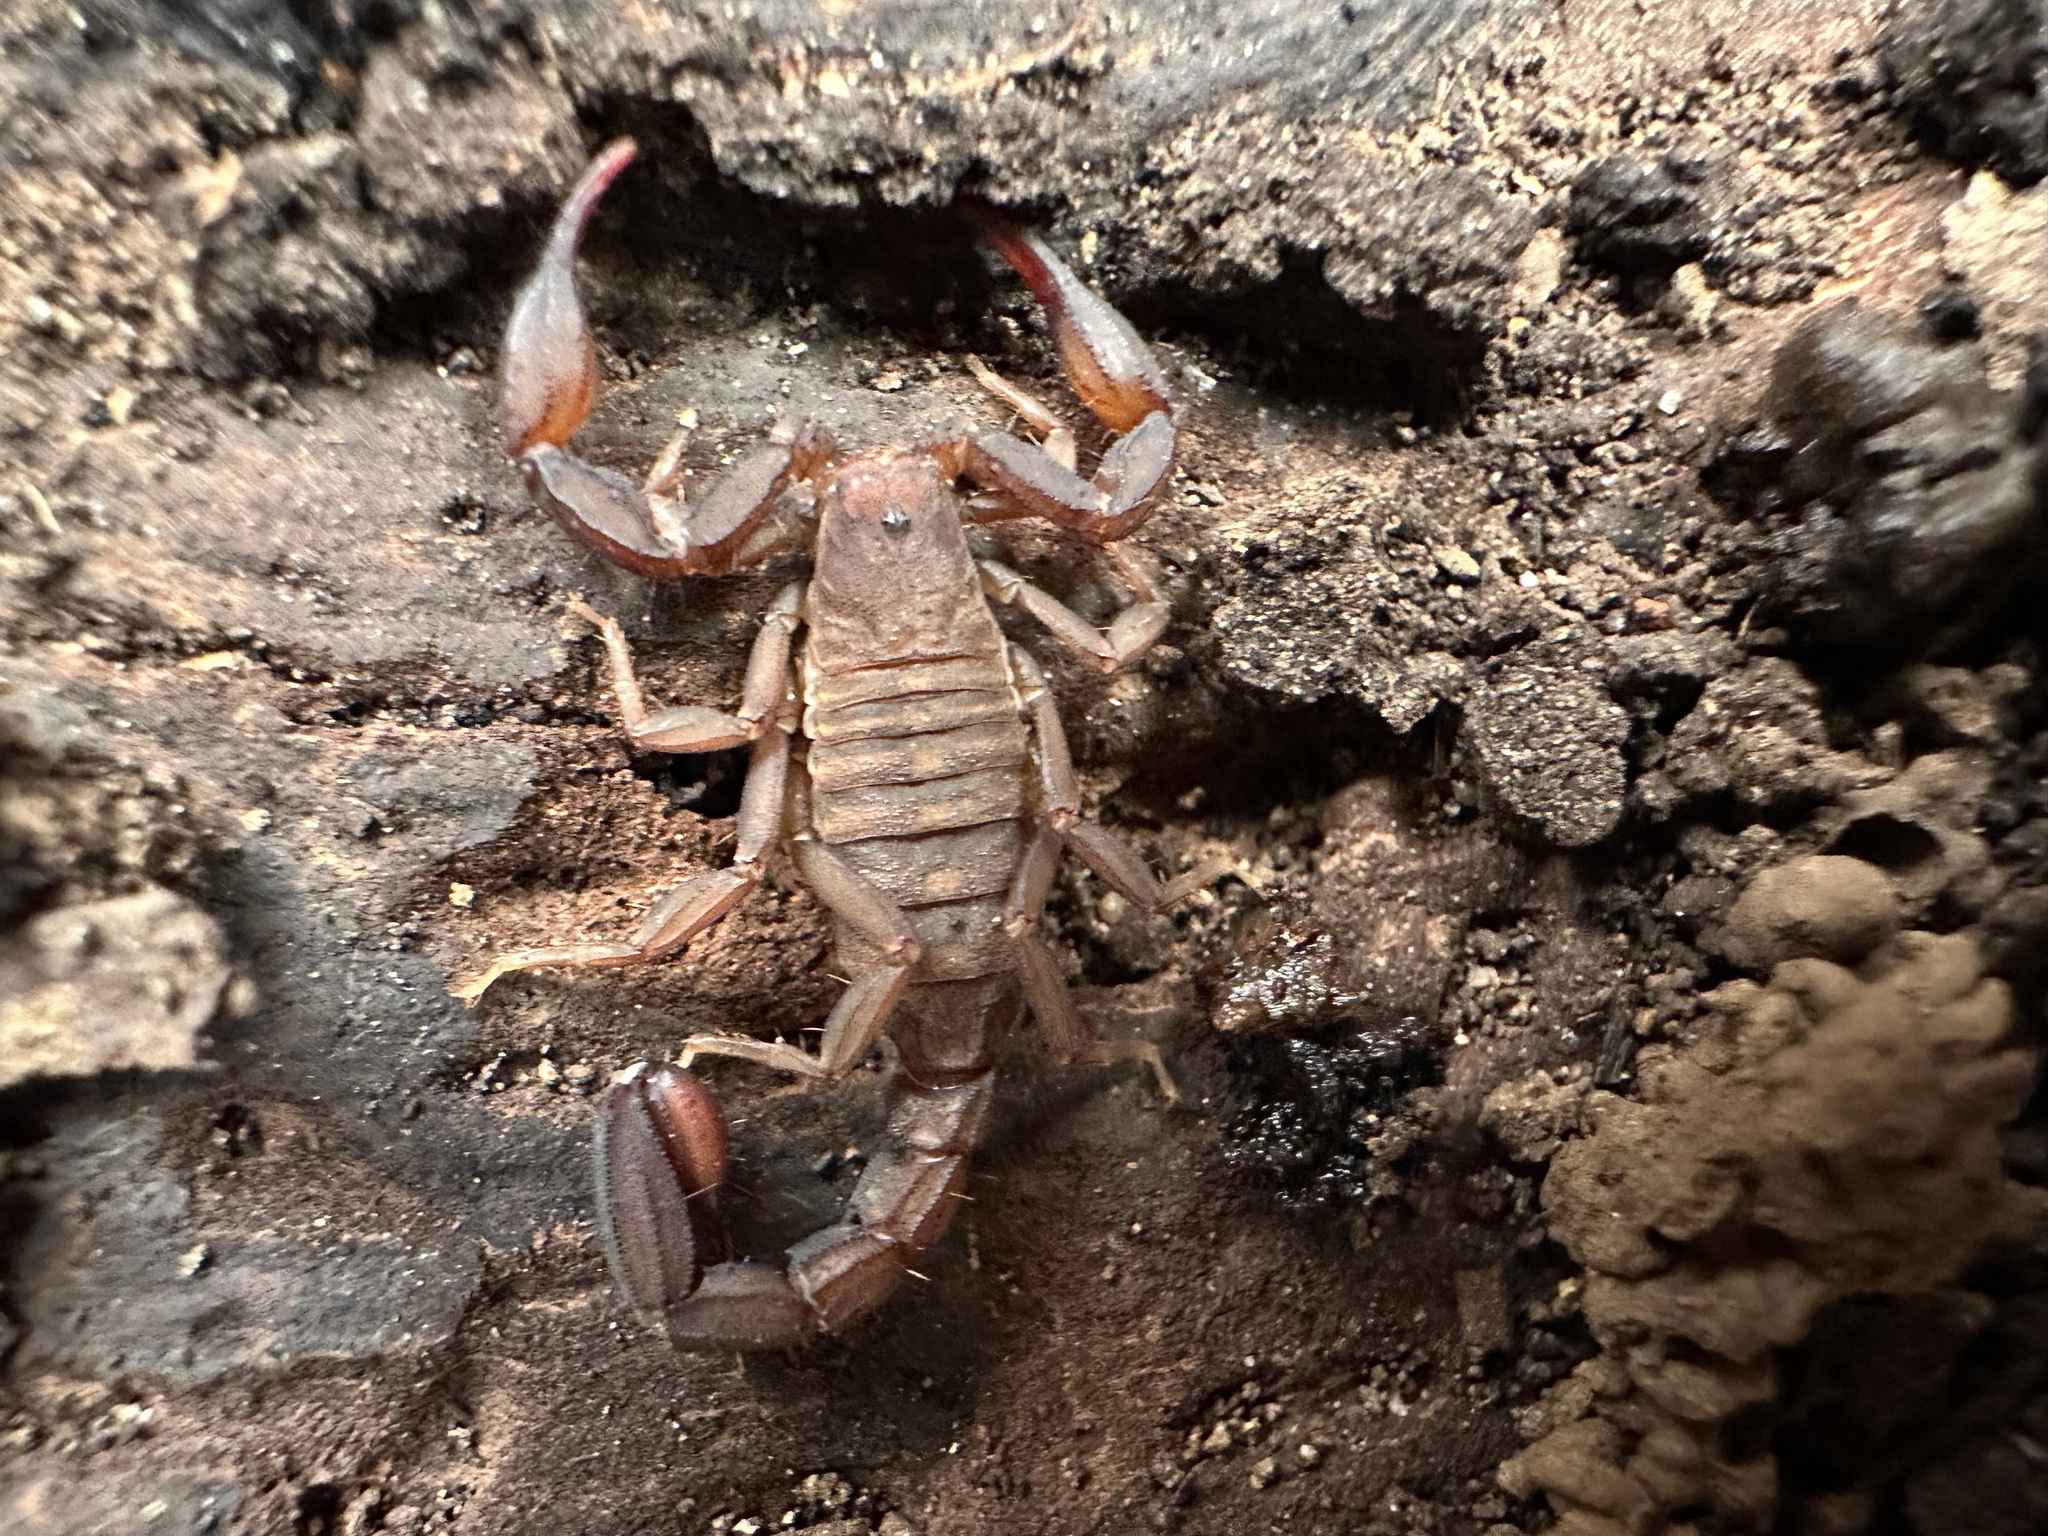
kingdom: Animalia
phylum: Arthropoda
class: Arachnida
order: Scorpiones
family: Vaejovidae
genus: Graemeloweus
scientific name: Graemeloweus iviei
